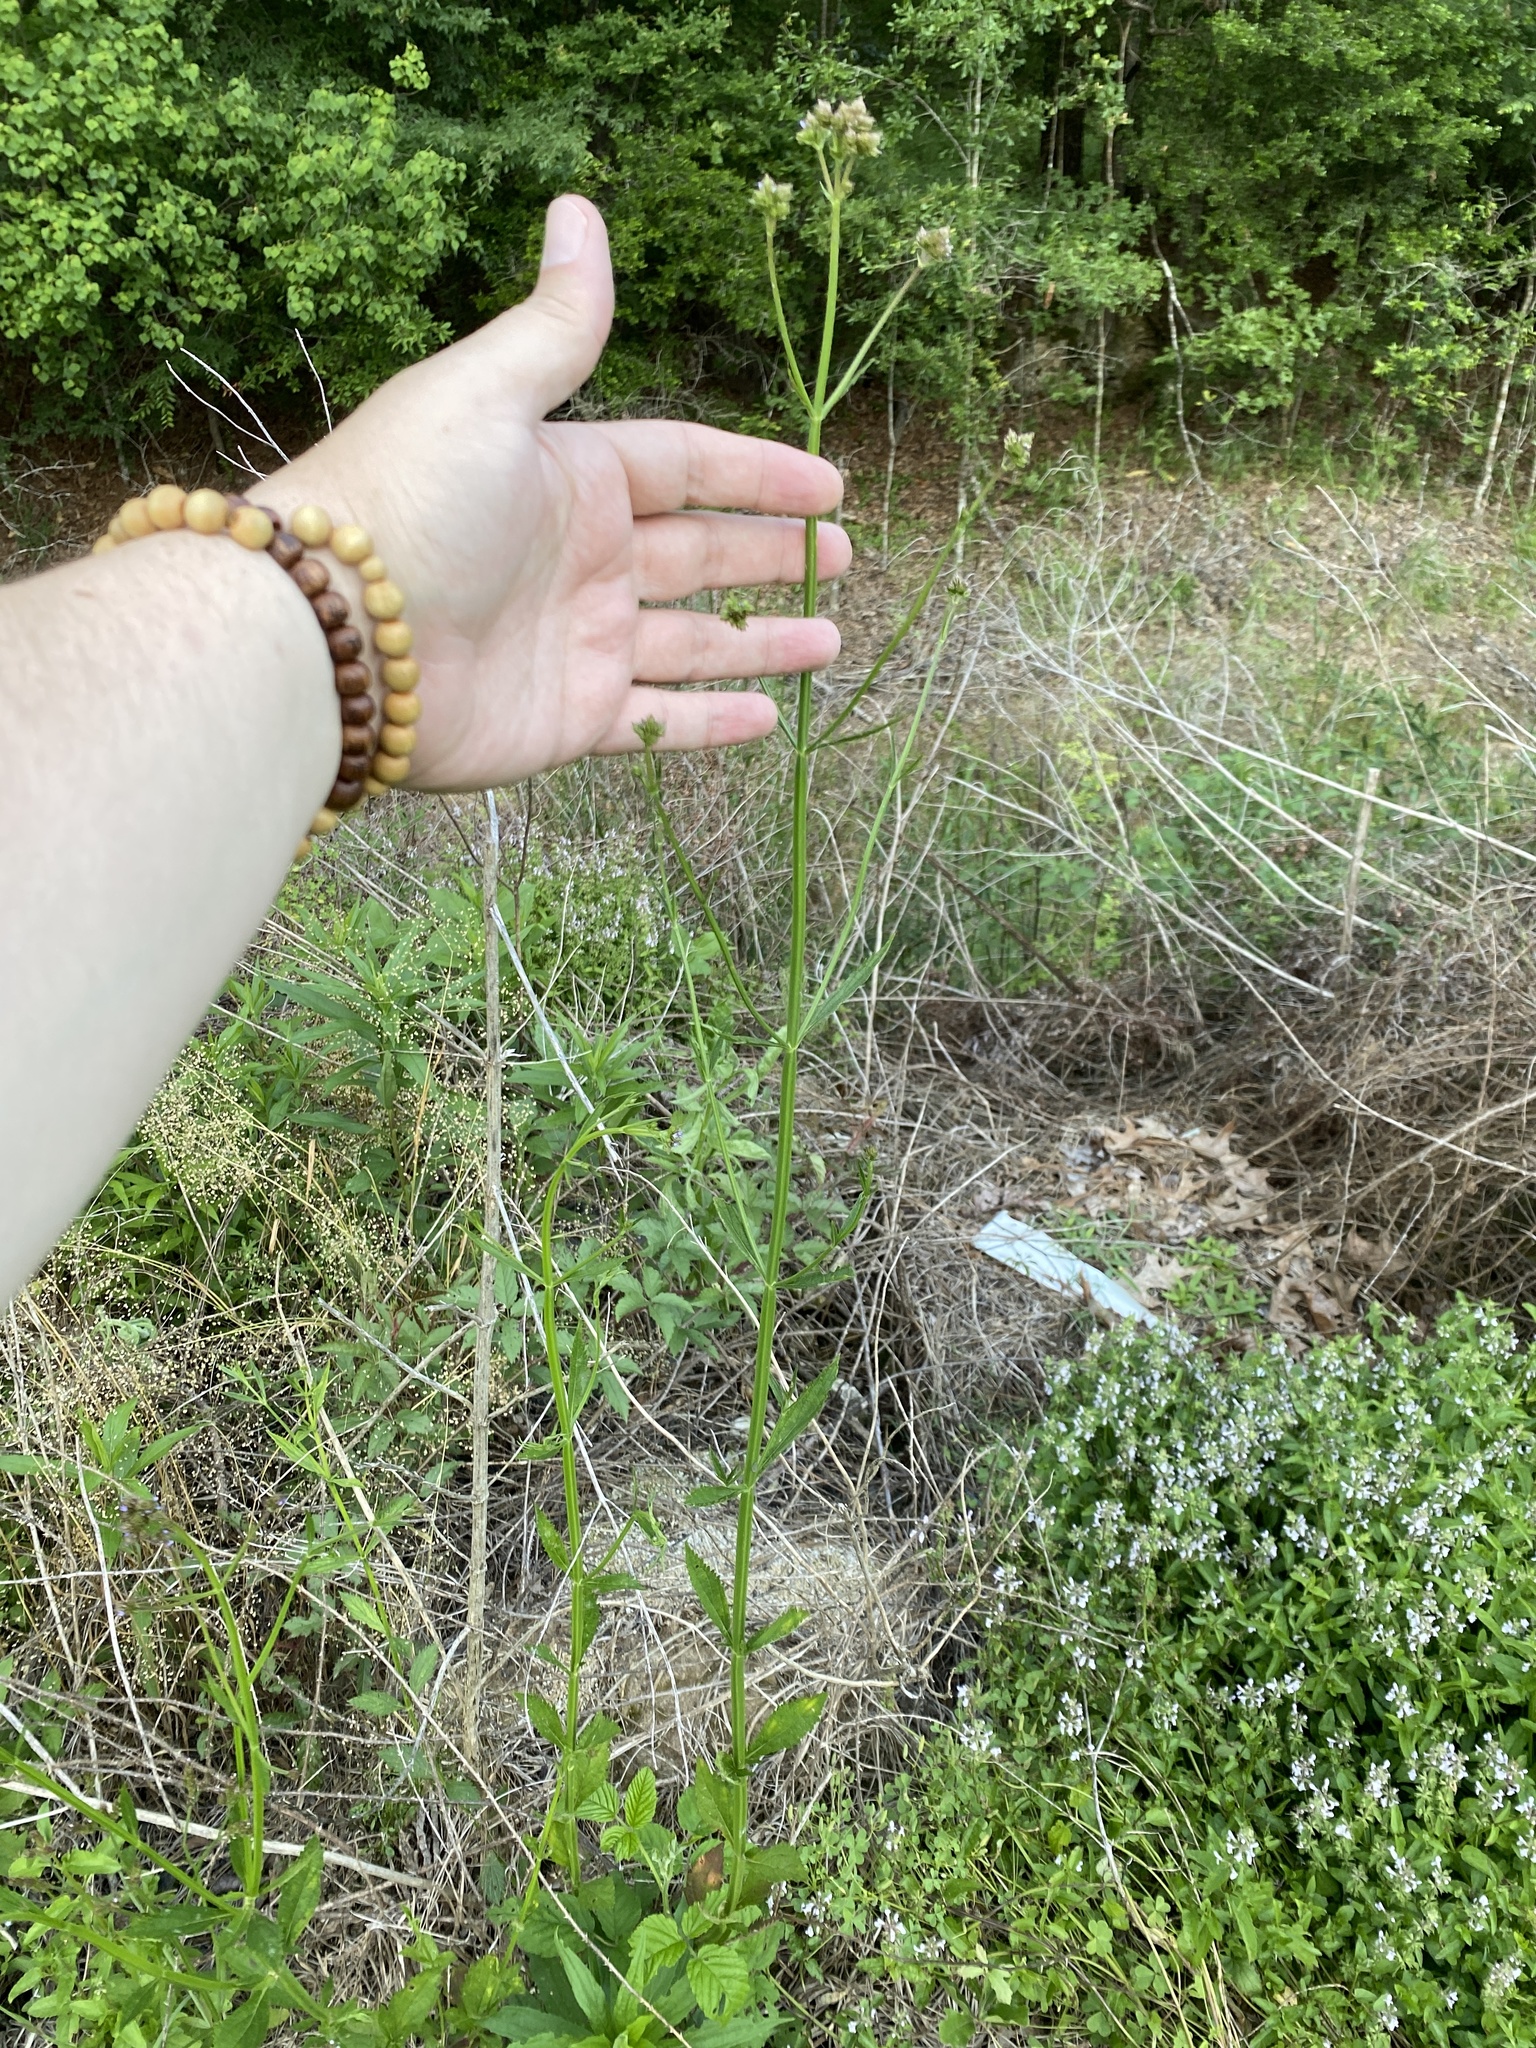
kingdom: Plantae
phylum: Tracheophyta
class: Magnoliopsida
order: Lamiales
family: Verbenaceae
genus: Verbena
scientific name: Verbena brasiliensis
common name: Brazilian vervain
